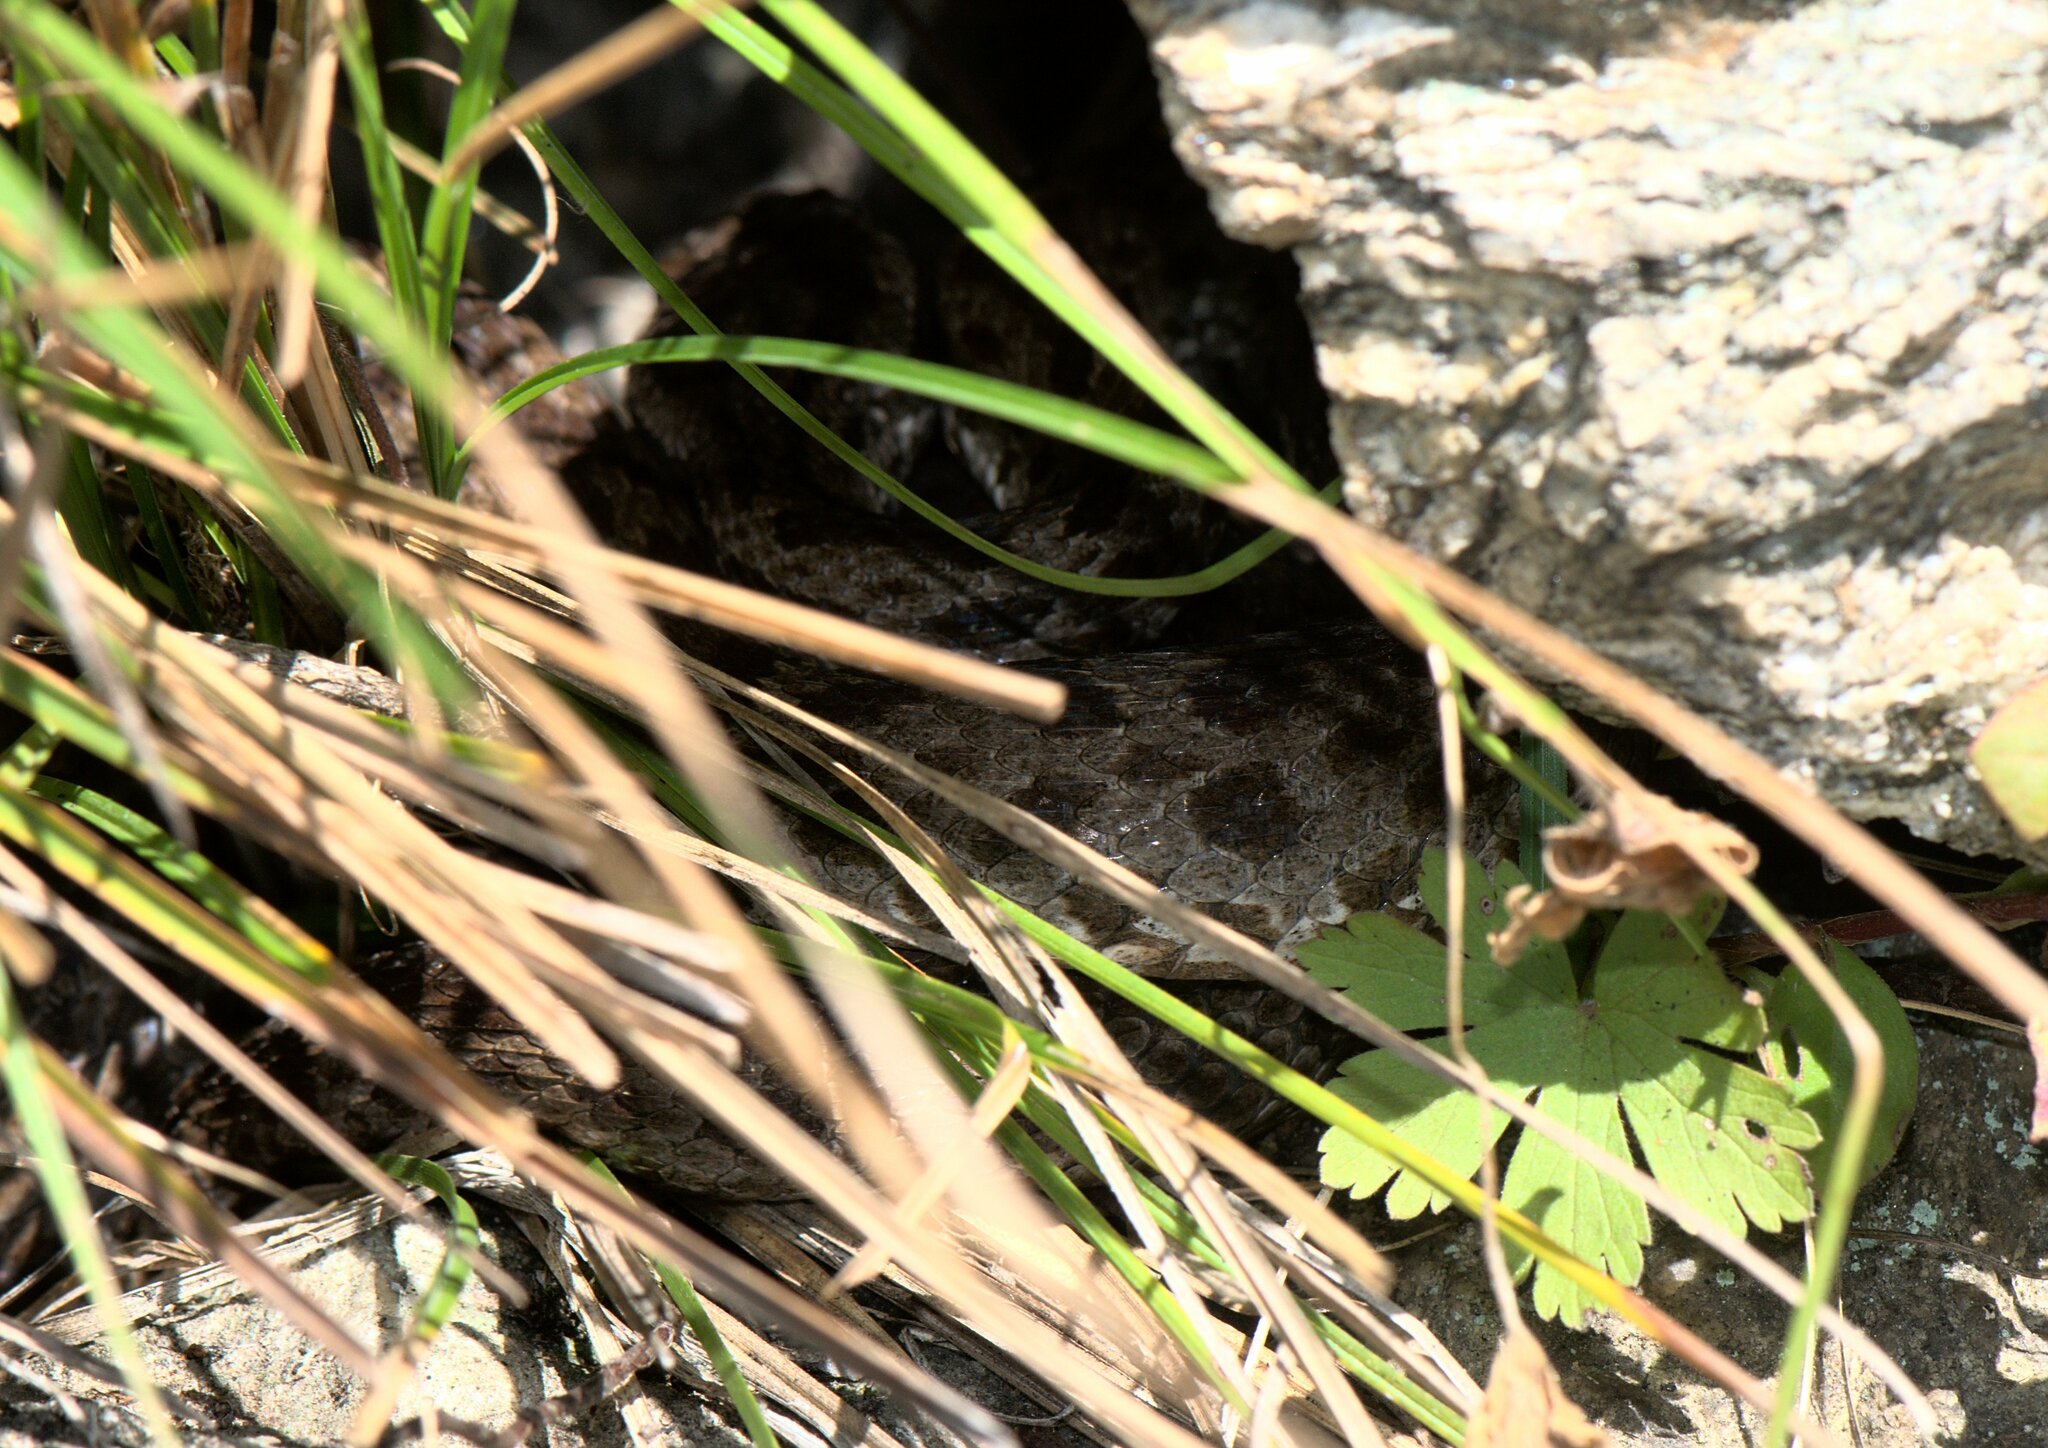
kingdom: Animalia
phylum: Chordata
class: Squamata
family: Viperidae
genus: Gloydius
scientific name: Gloydius himalayanus
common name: Himalayan pit-viper
